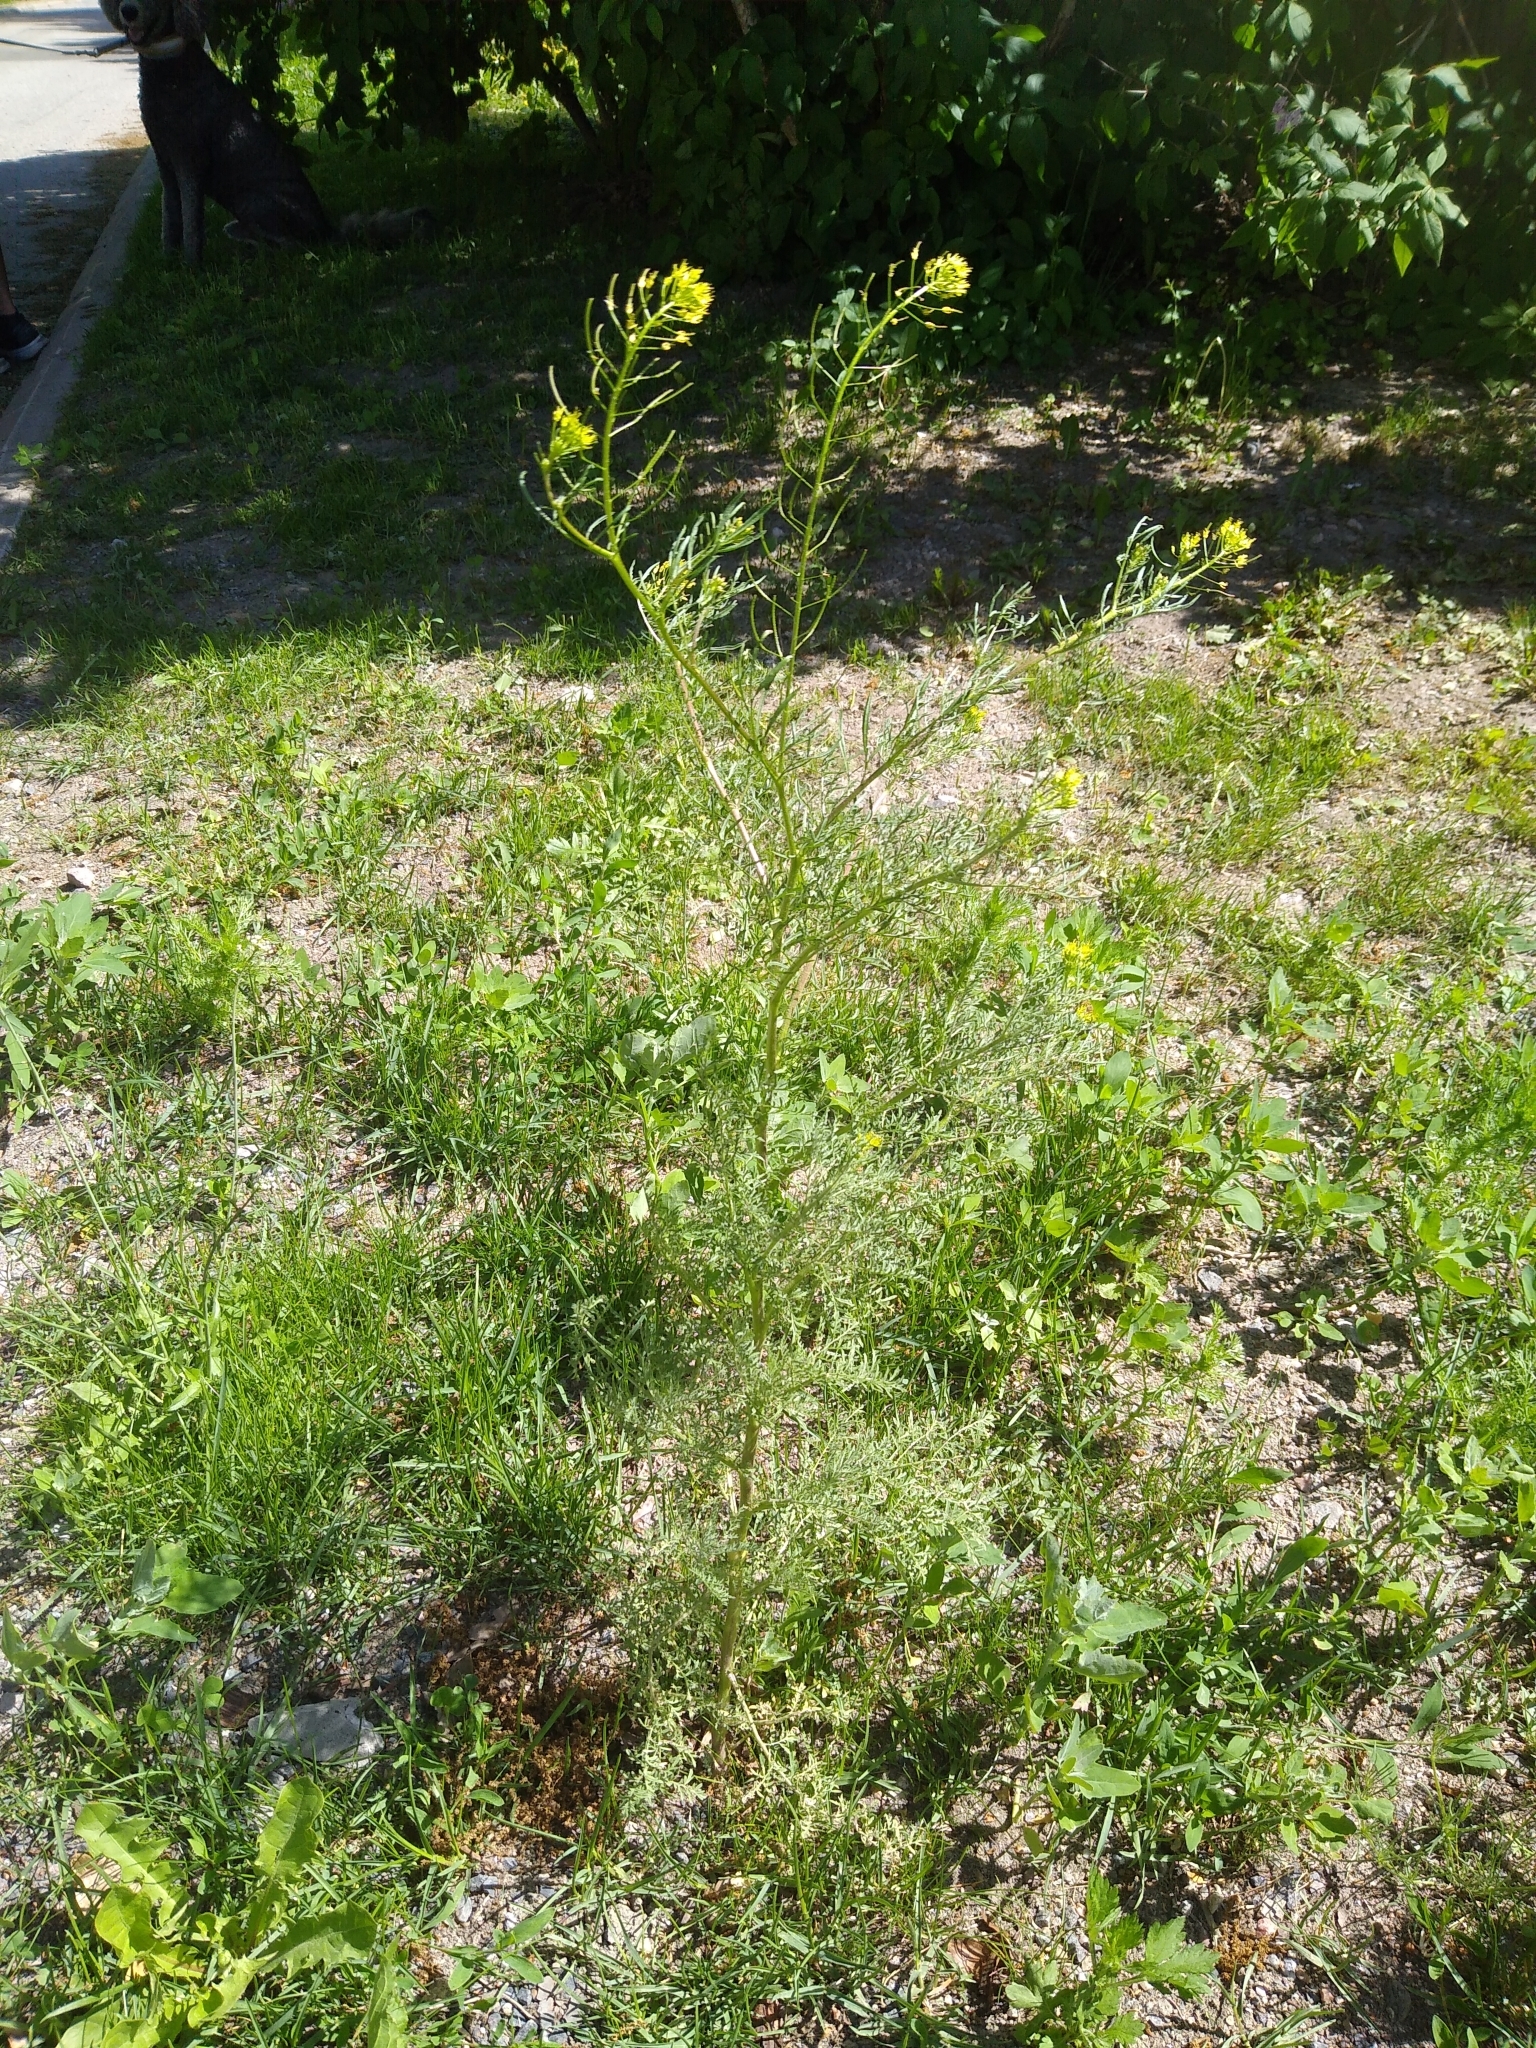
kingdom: Plantae
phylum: Tracheophyta
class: Magnoliopsida
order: Brassicales
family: Brassicaceae
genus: Descurainia
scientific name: Descurainia sophia
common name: Flixweed
